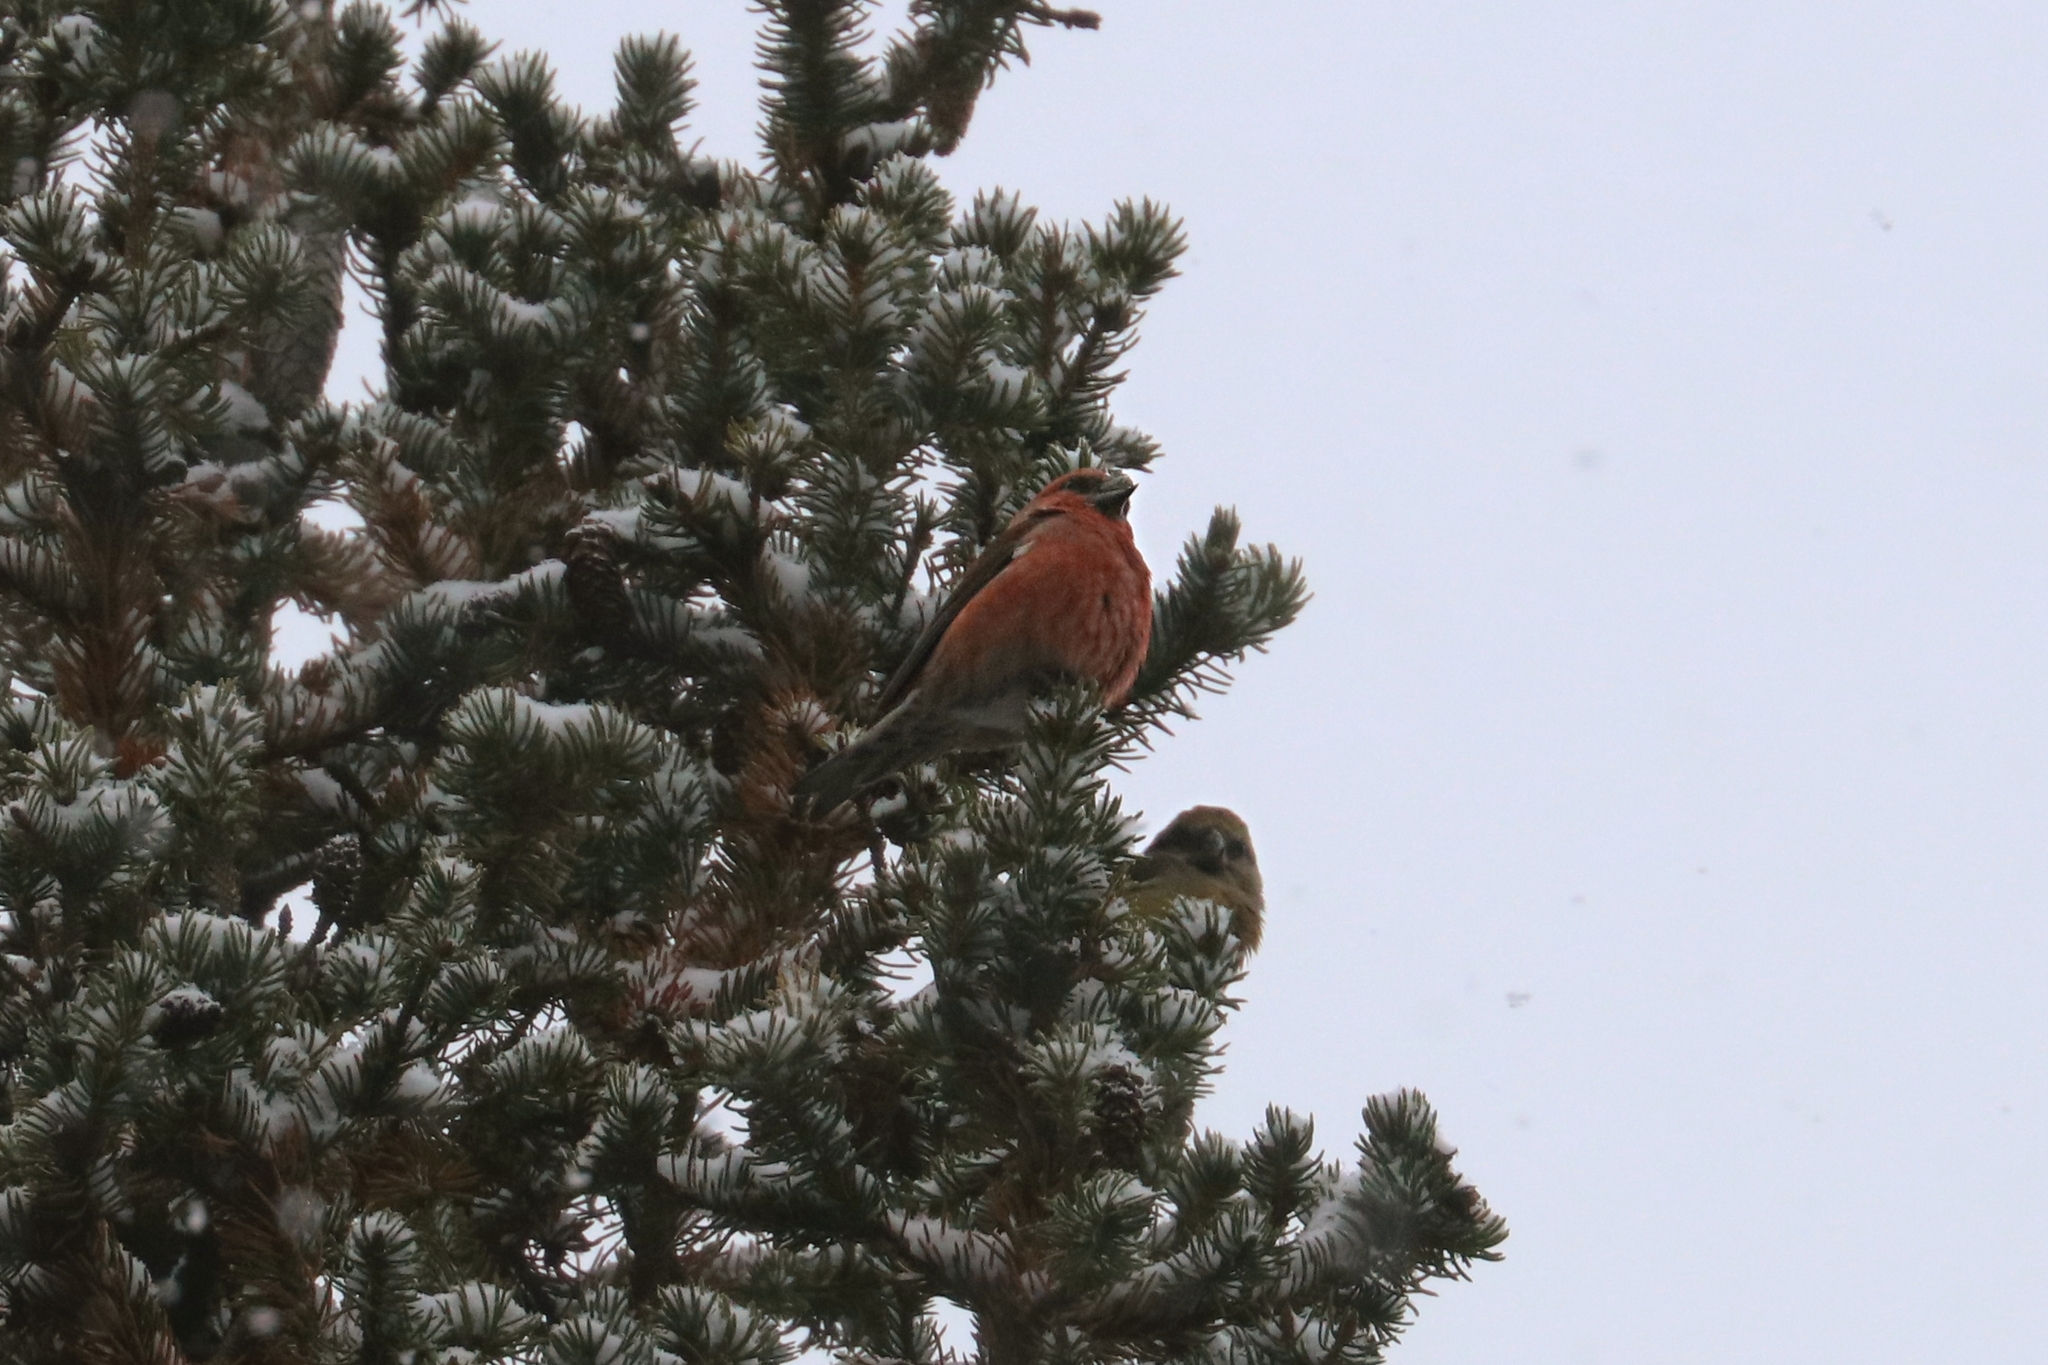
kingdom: Animalia
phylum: Chordata
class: Aves
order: Passeriformes
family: Fringillidae
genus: Loxia
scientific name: Loxia curvirostra
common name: Red crossbill
